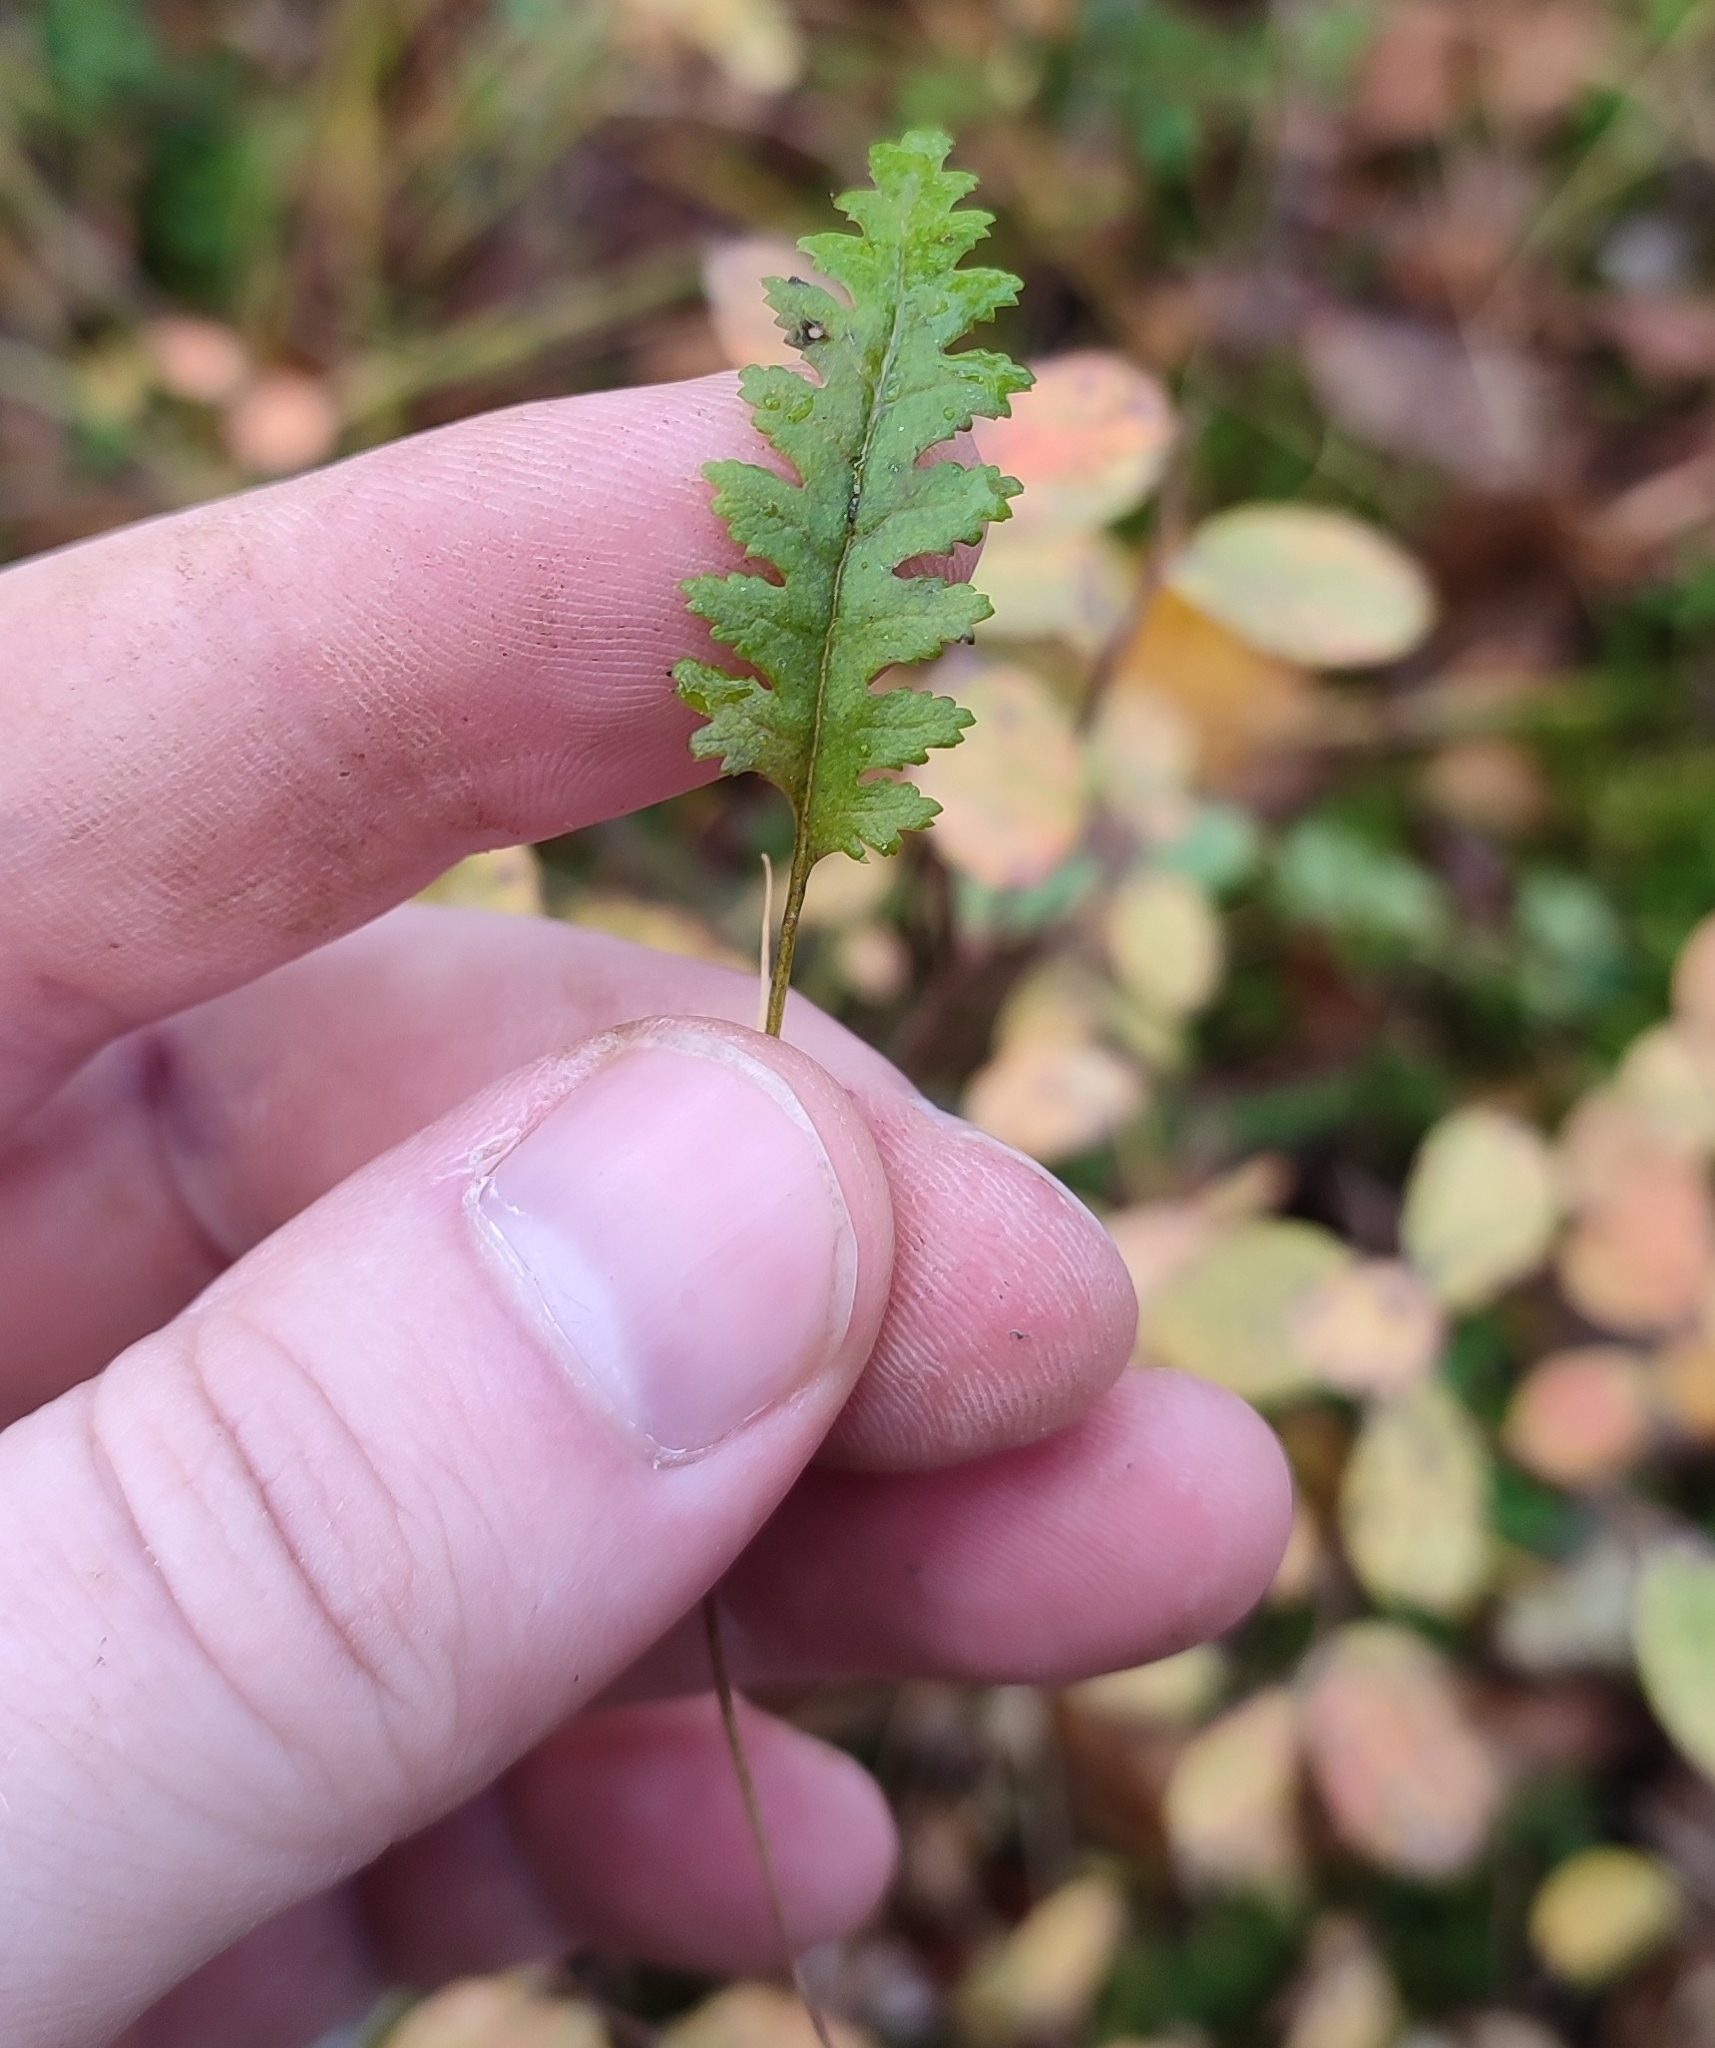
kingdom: Plantae
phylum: Tracheophyta
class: Magnoliopsida
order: Lamiales
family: Orobanchaceae
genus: Pedicularis
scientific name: Pedicularis labradorica
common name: Labrador lousewort
